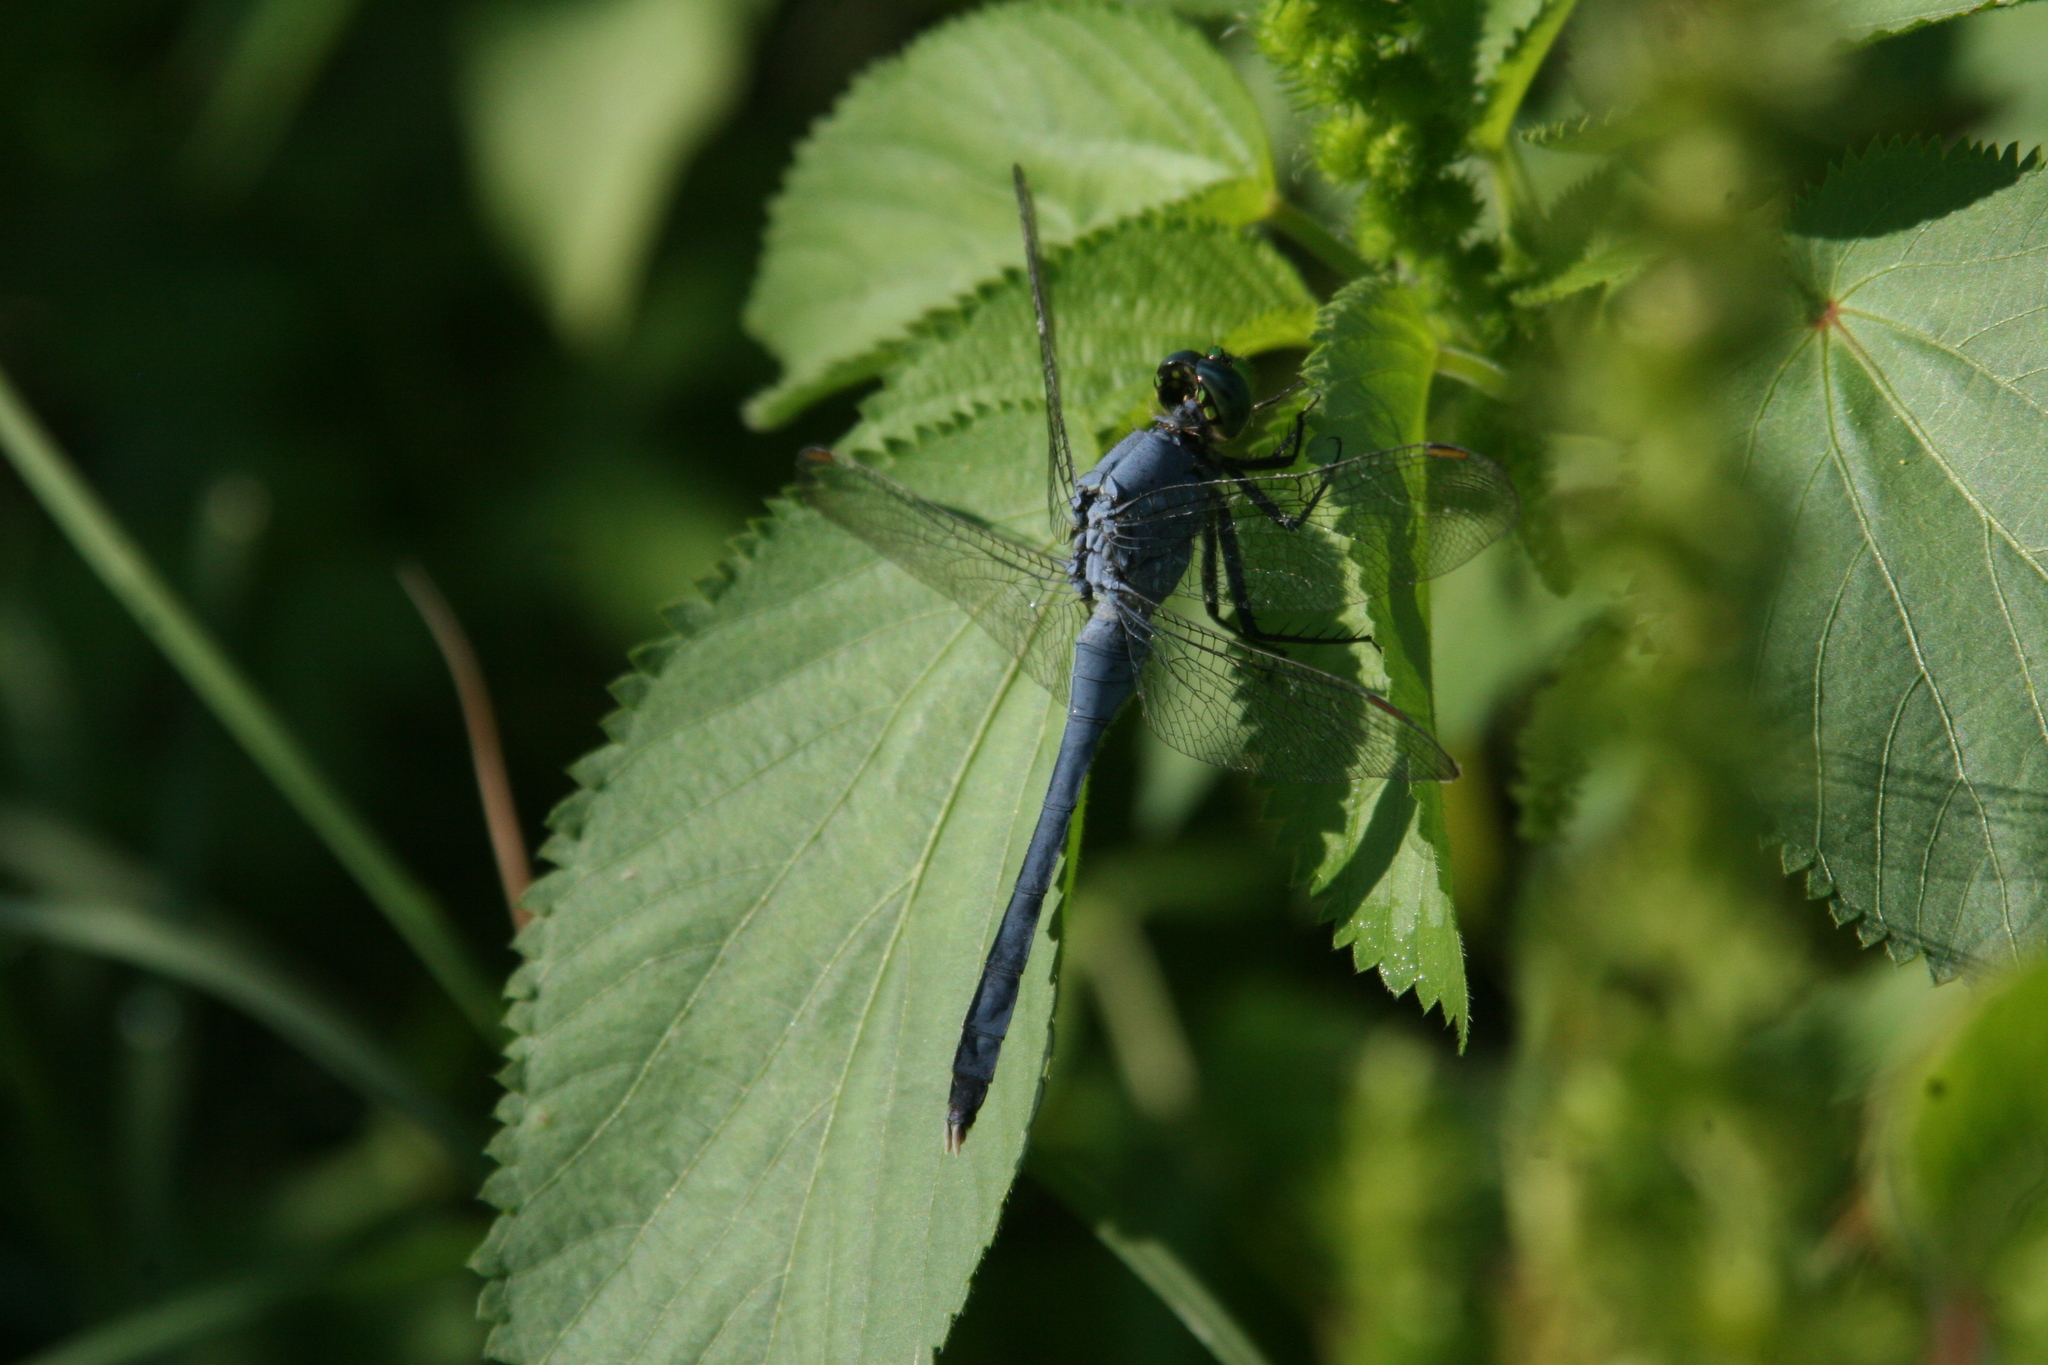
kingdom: Animalia
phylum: Arthropoda
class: Insecta
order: Odonata
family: Libellulidae
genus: Erythemis
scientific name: Erythemis simplicicollis
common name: Eastern pondhawk
